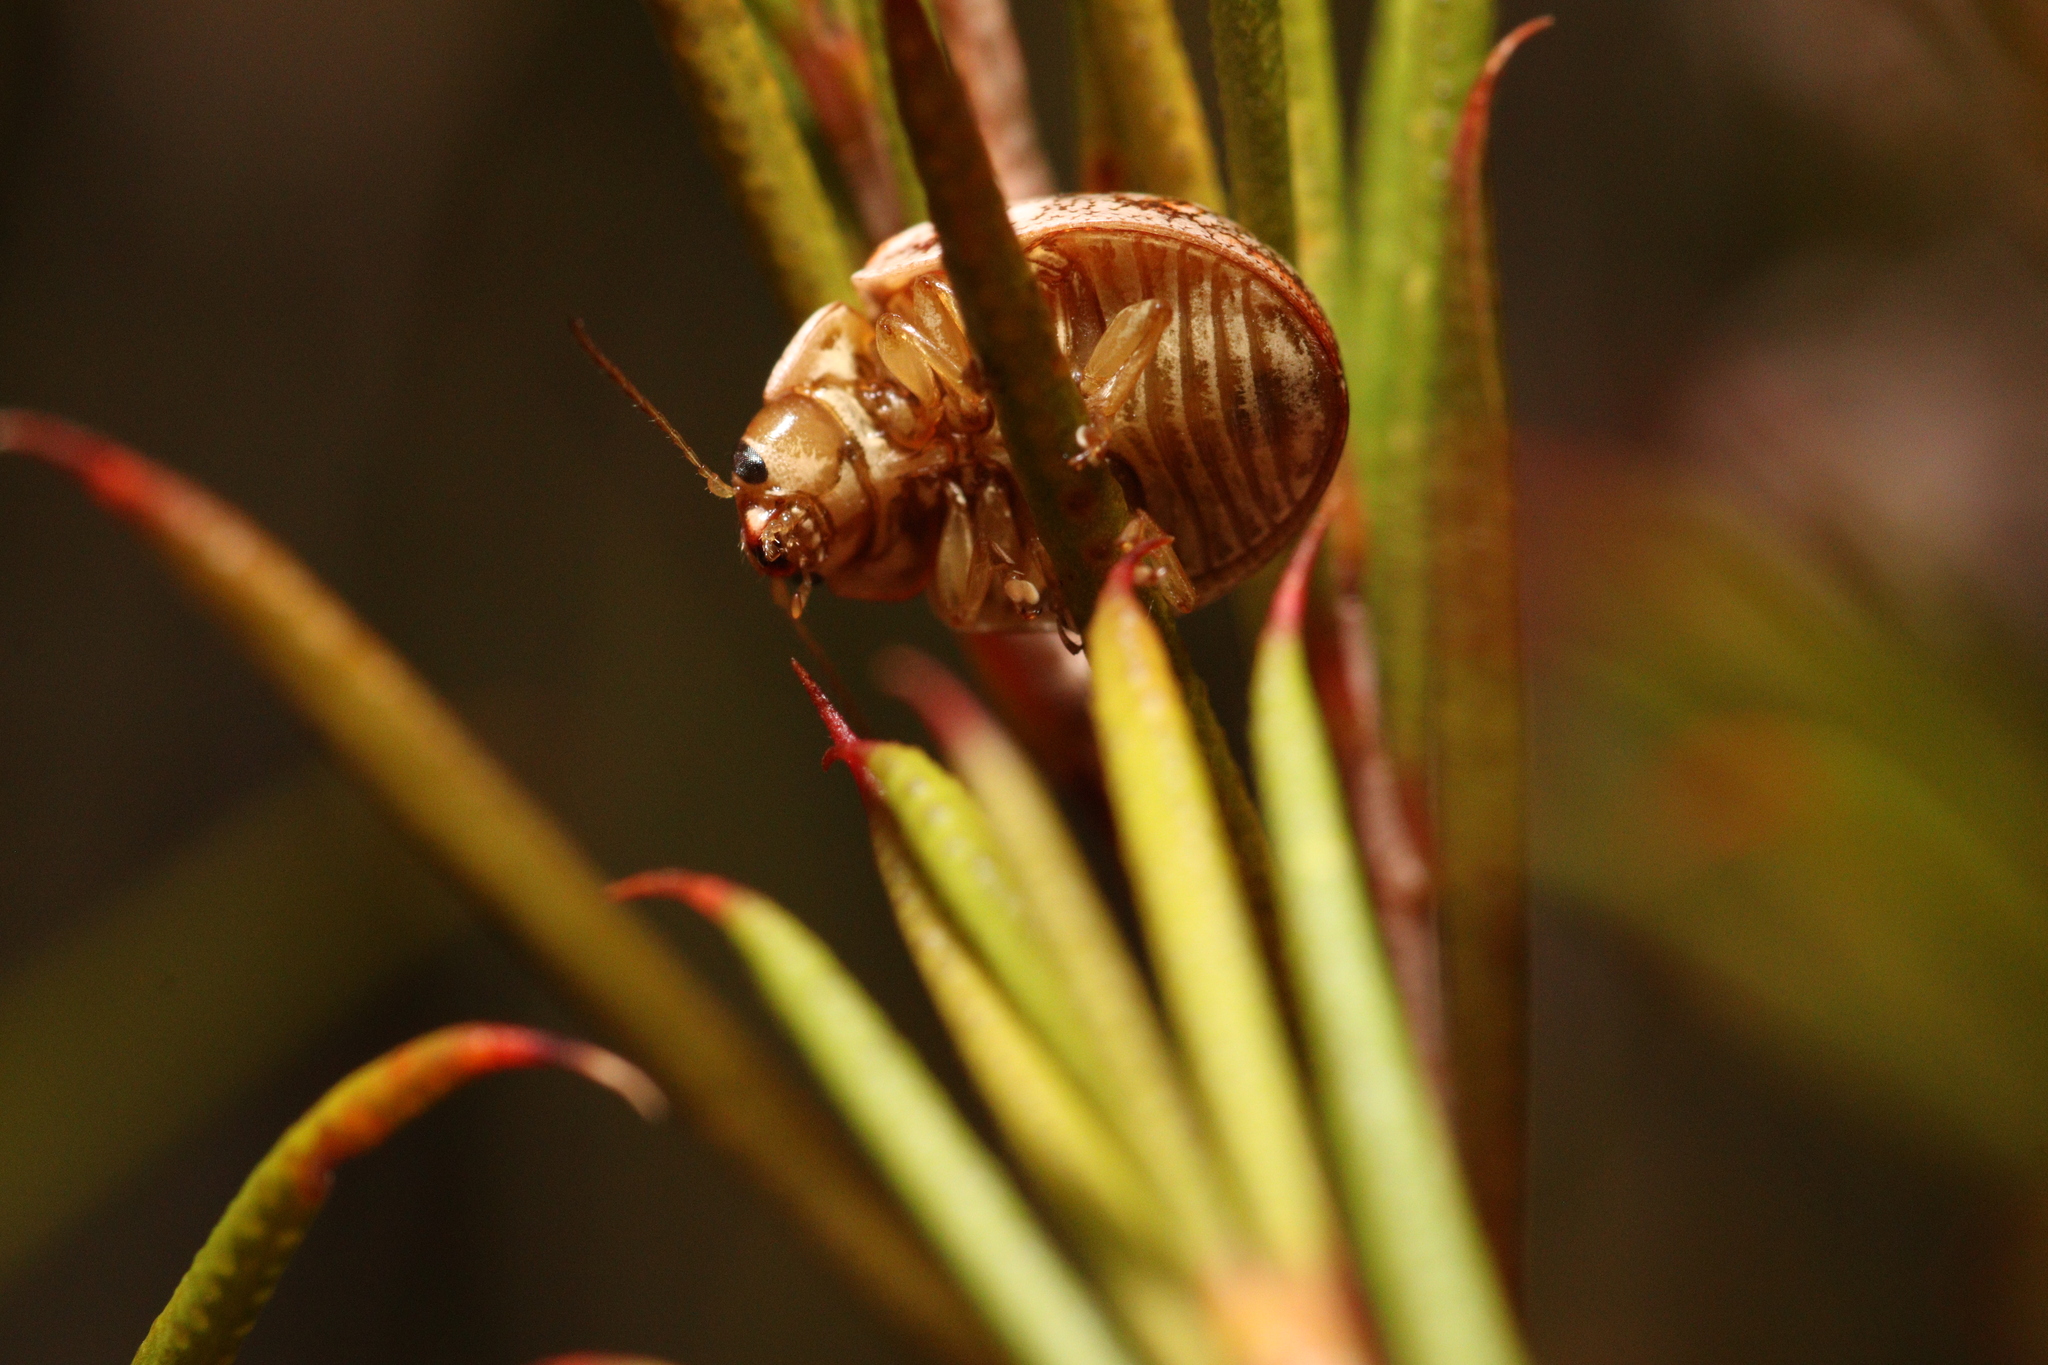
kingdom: Animalia
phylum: Arthropoda
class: Insecta
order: Coleoptera
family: Chrysomelidae
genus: Paropsis
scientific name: Paropsis
